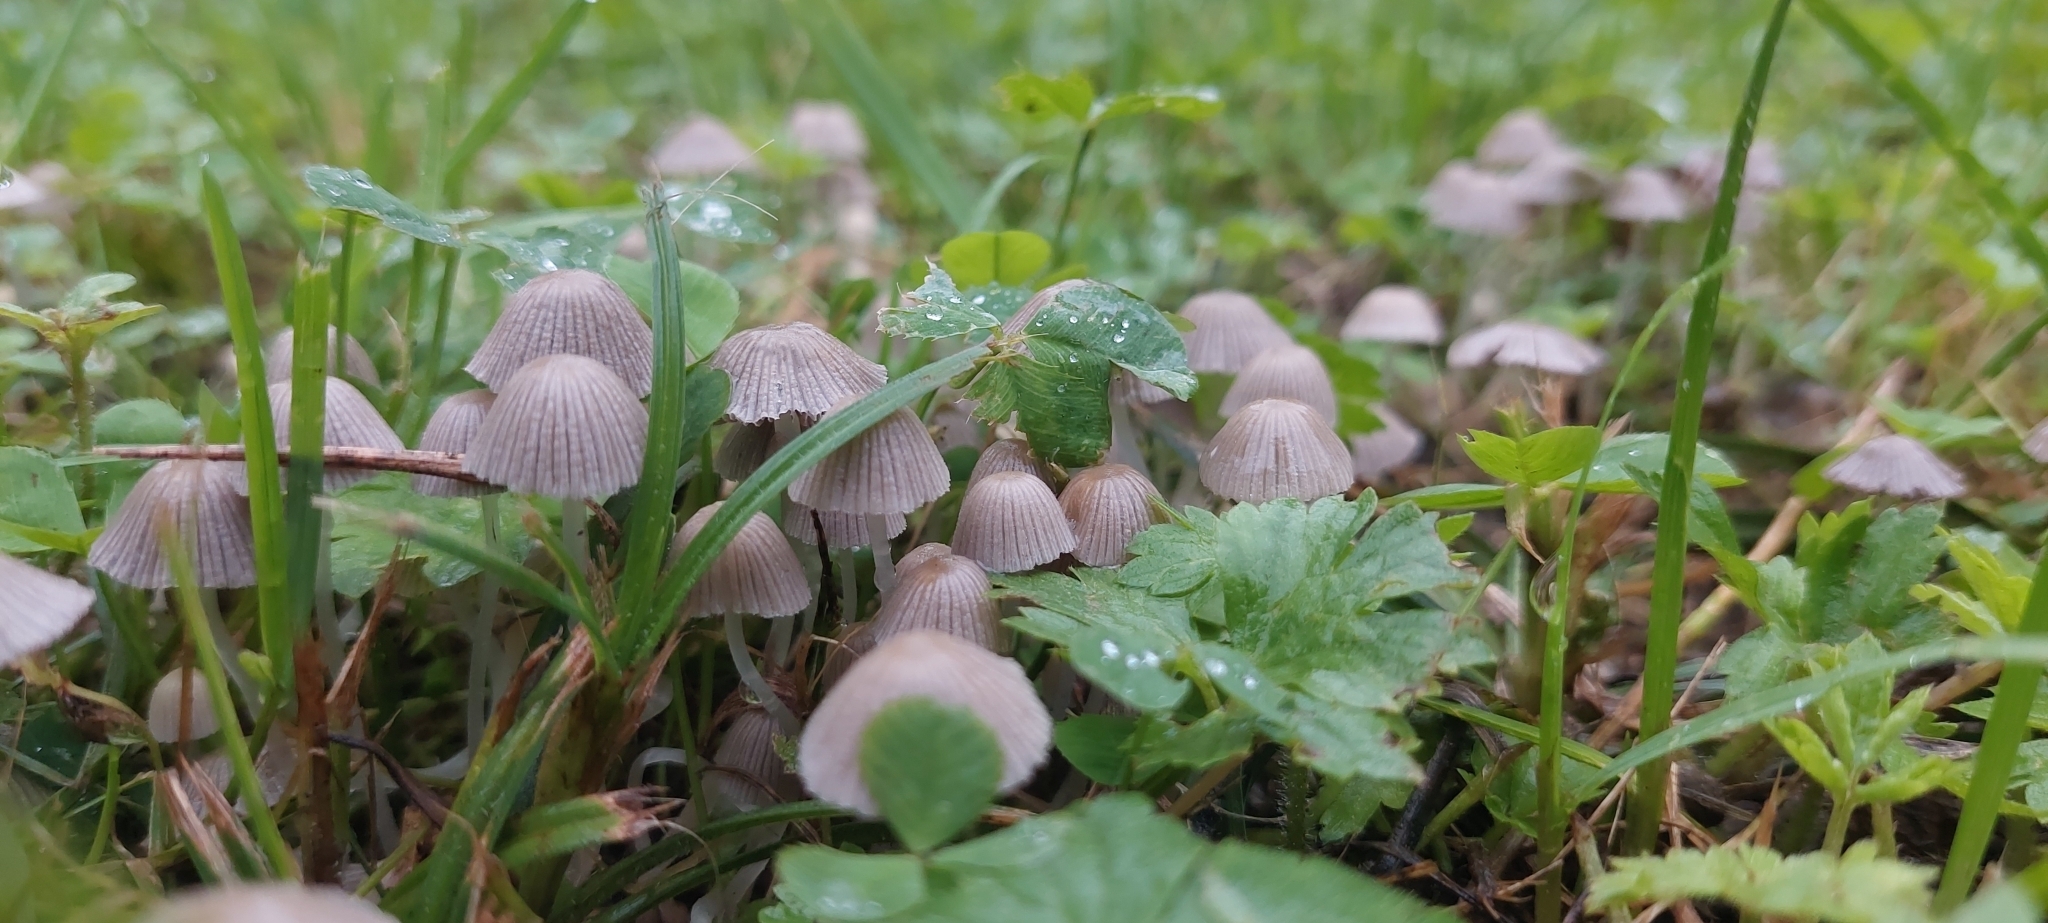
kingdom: Fungi
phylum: Basidiomycota
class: Agaricomycetes
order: Agaricales
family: Psathyrellaceae
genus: Coprinellus
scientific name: Coprinellus disseminatus
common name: Fairies' bonnets
